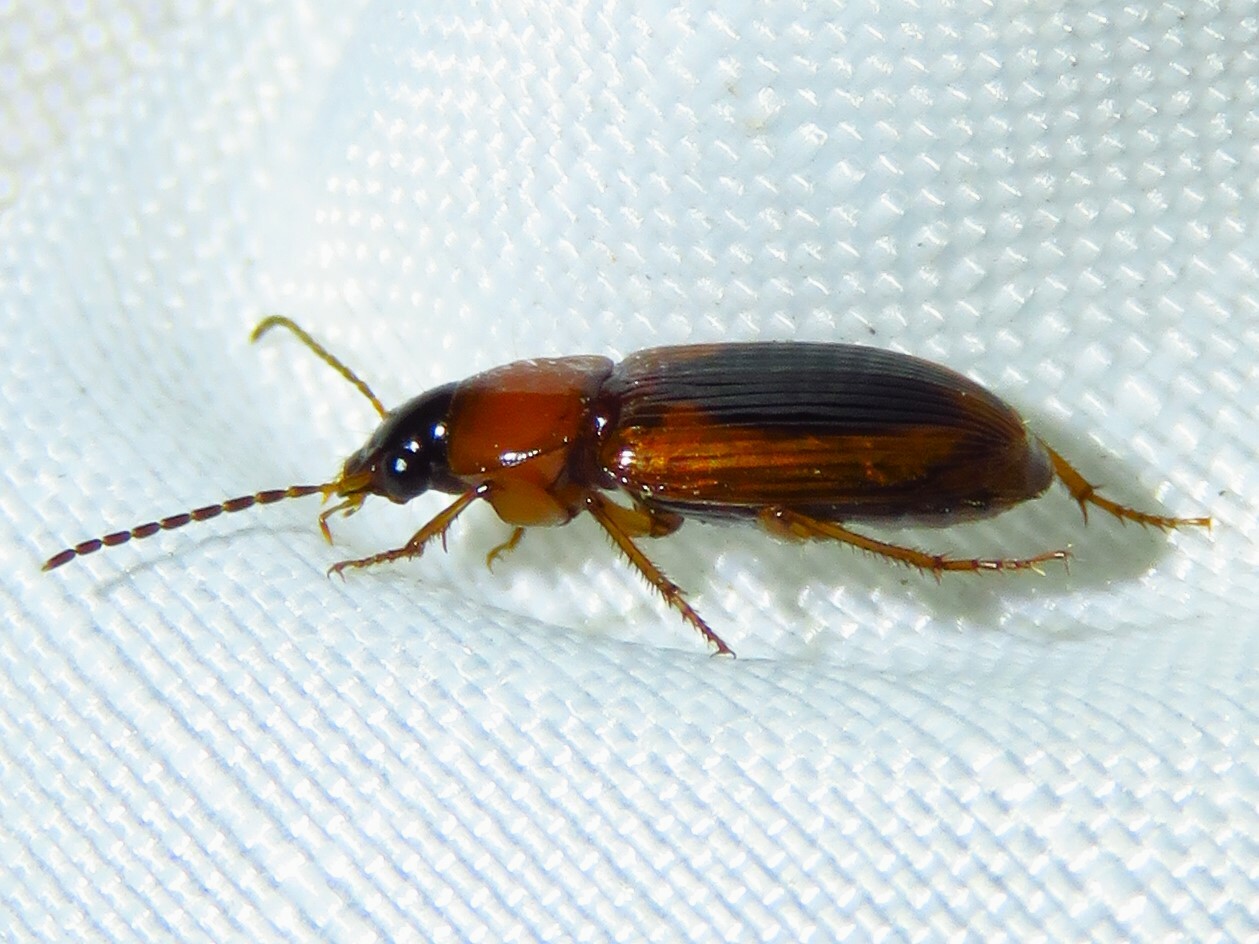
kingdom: Animalia
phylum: Arthropoda
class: Insecta
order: Coleoptera
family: Carabidae
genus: Stenolophus
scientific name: Stenolophus dissimilis
